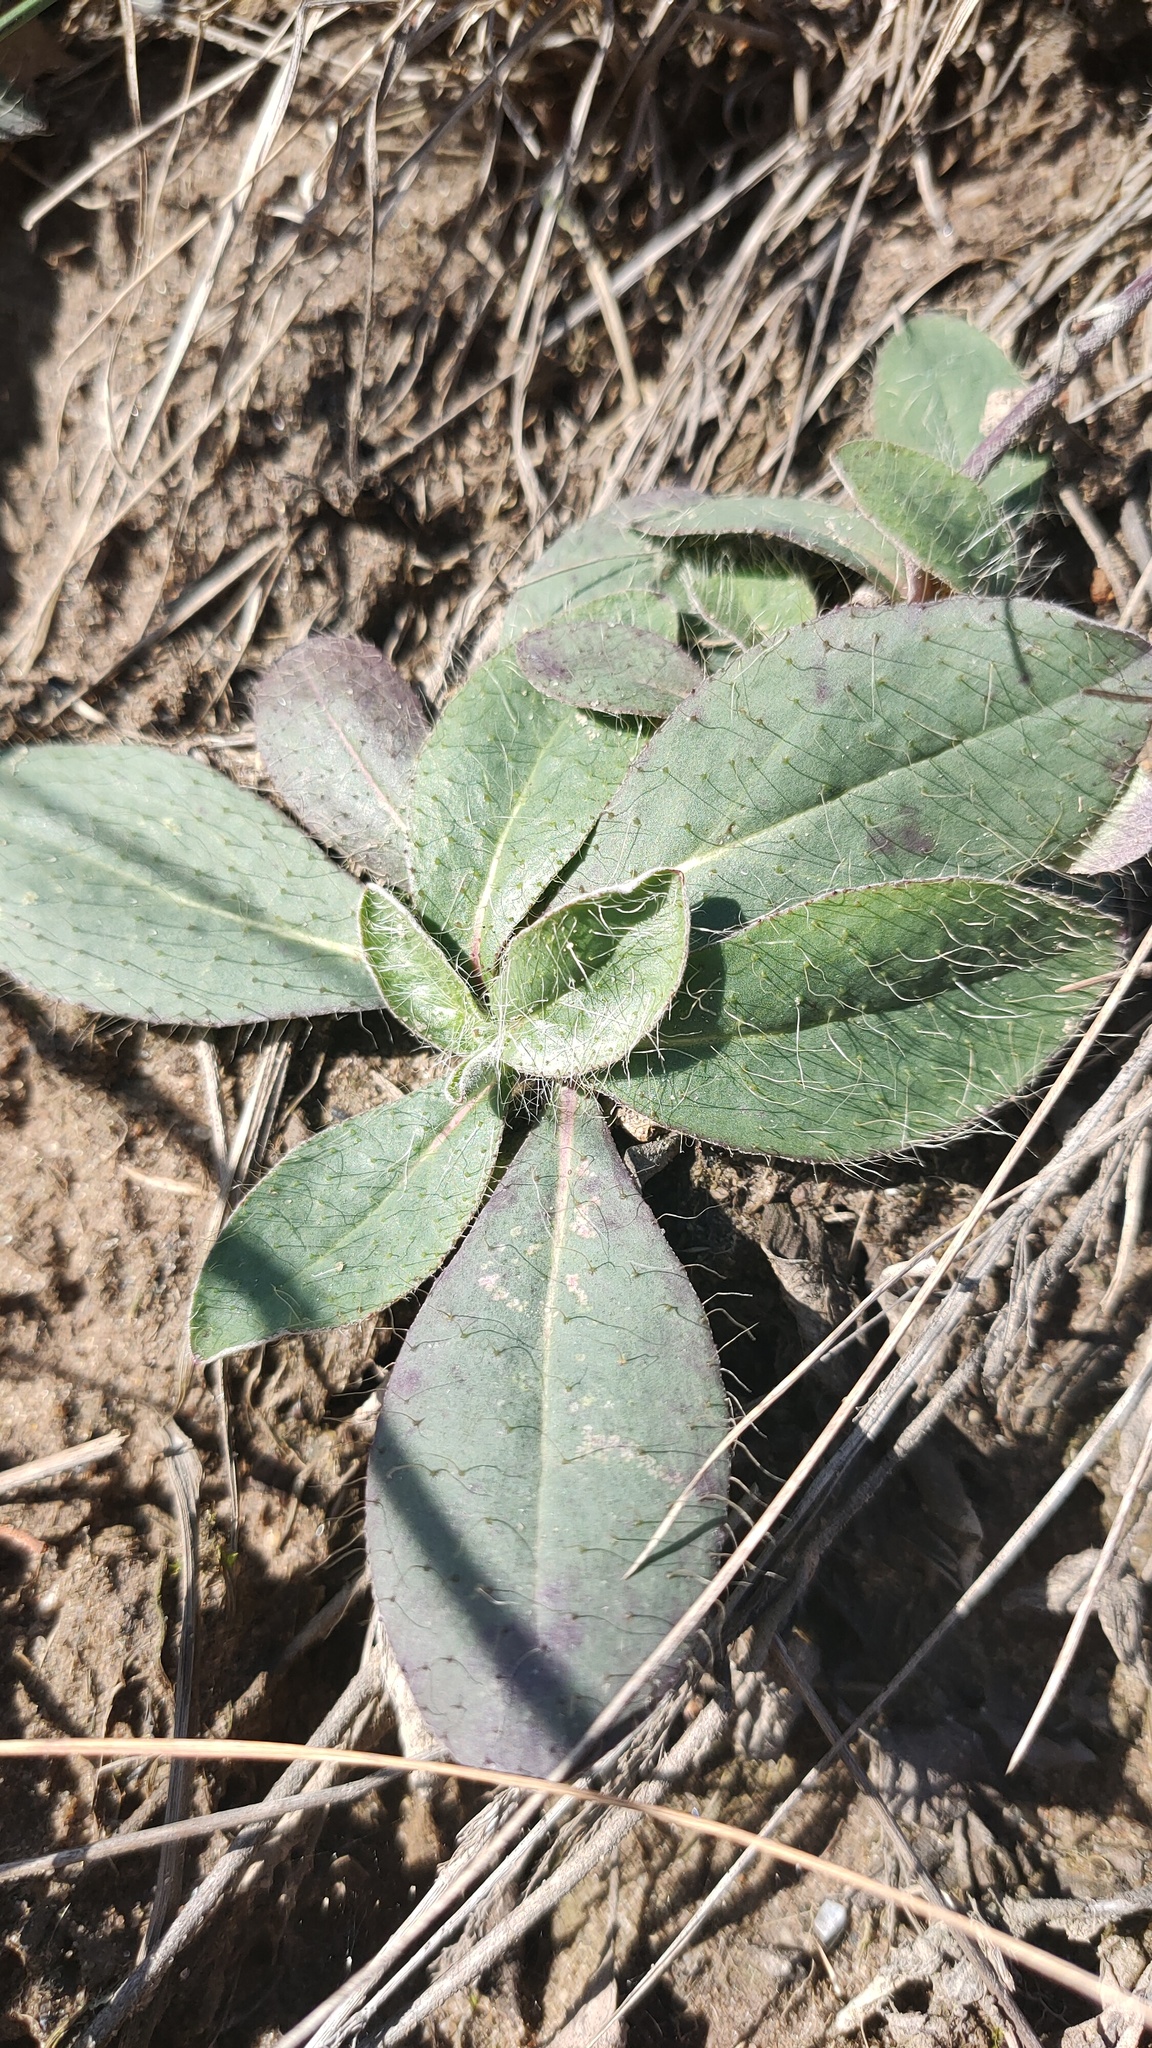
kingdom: Plantae
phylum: Tracheophyta
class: Magnoliopsida
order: Asterales
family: Asteraceae
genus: Pilosella
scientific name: Pilosella officinarum
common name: Mouse-ear hawkweed
